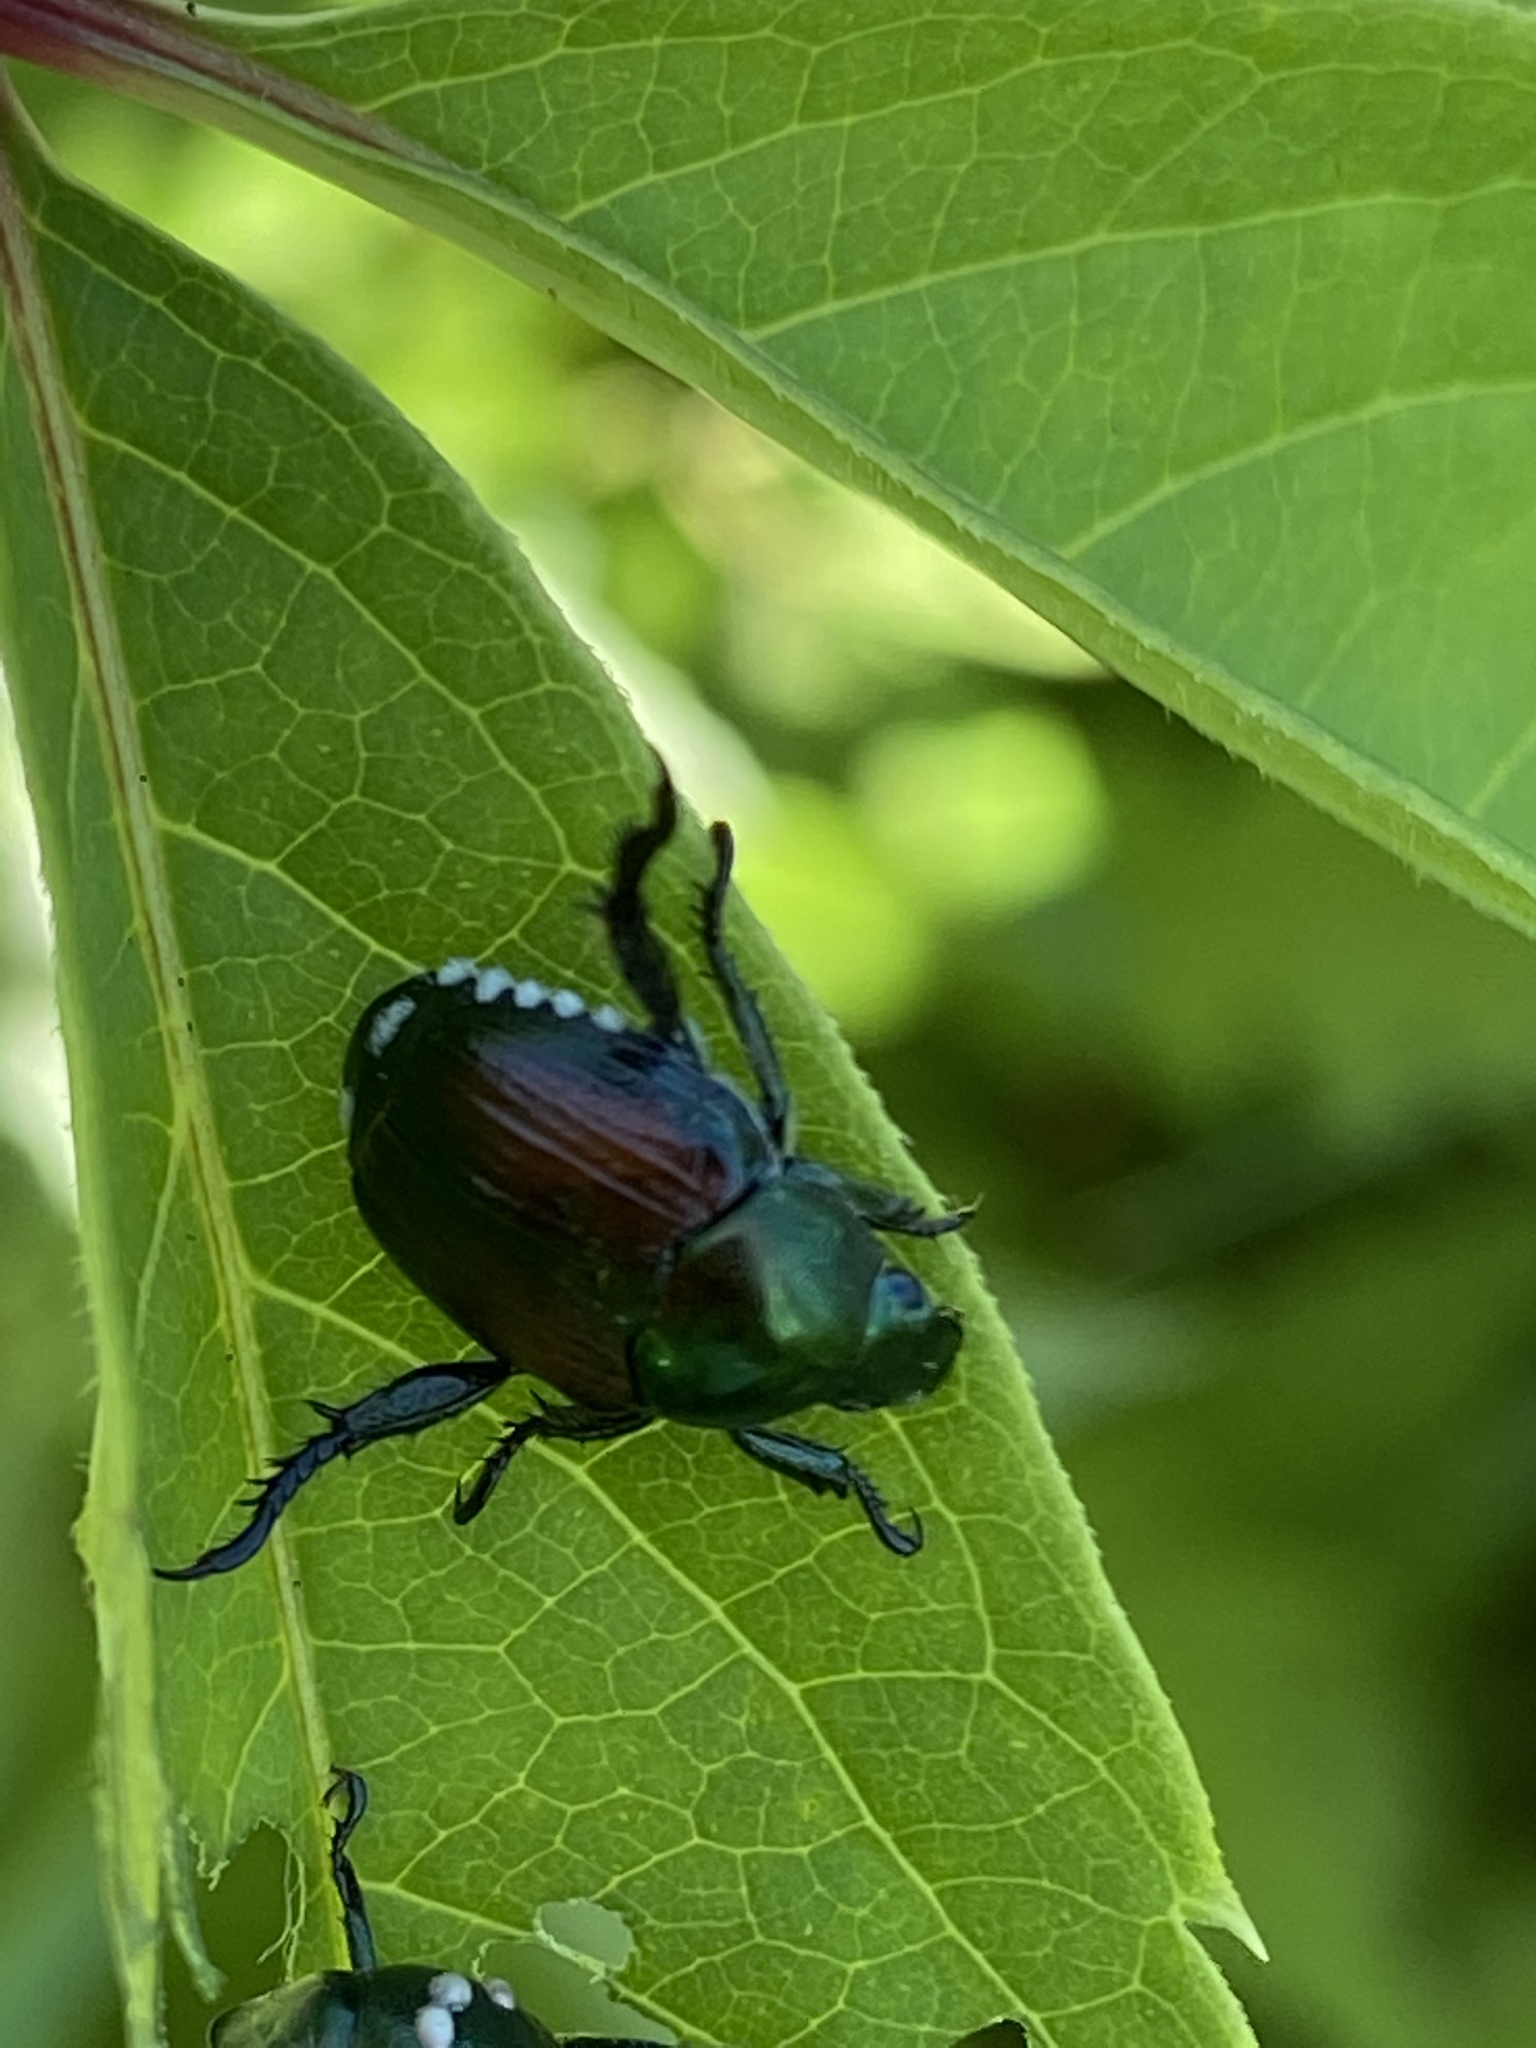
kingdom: Animalia
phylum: Arthropoda
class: Insecta
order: Coleoptera
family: Scarabaeidae
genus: Popillia
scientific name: Popillia japonica
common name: Japanese beetle
